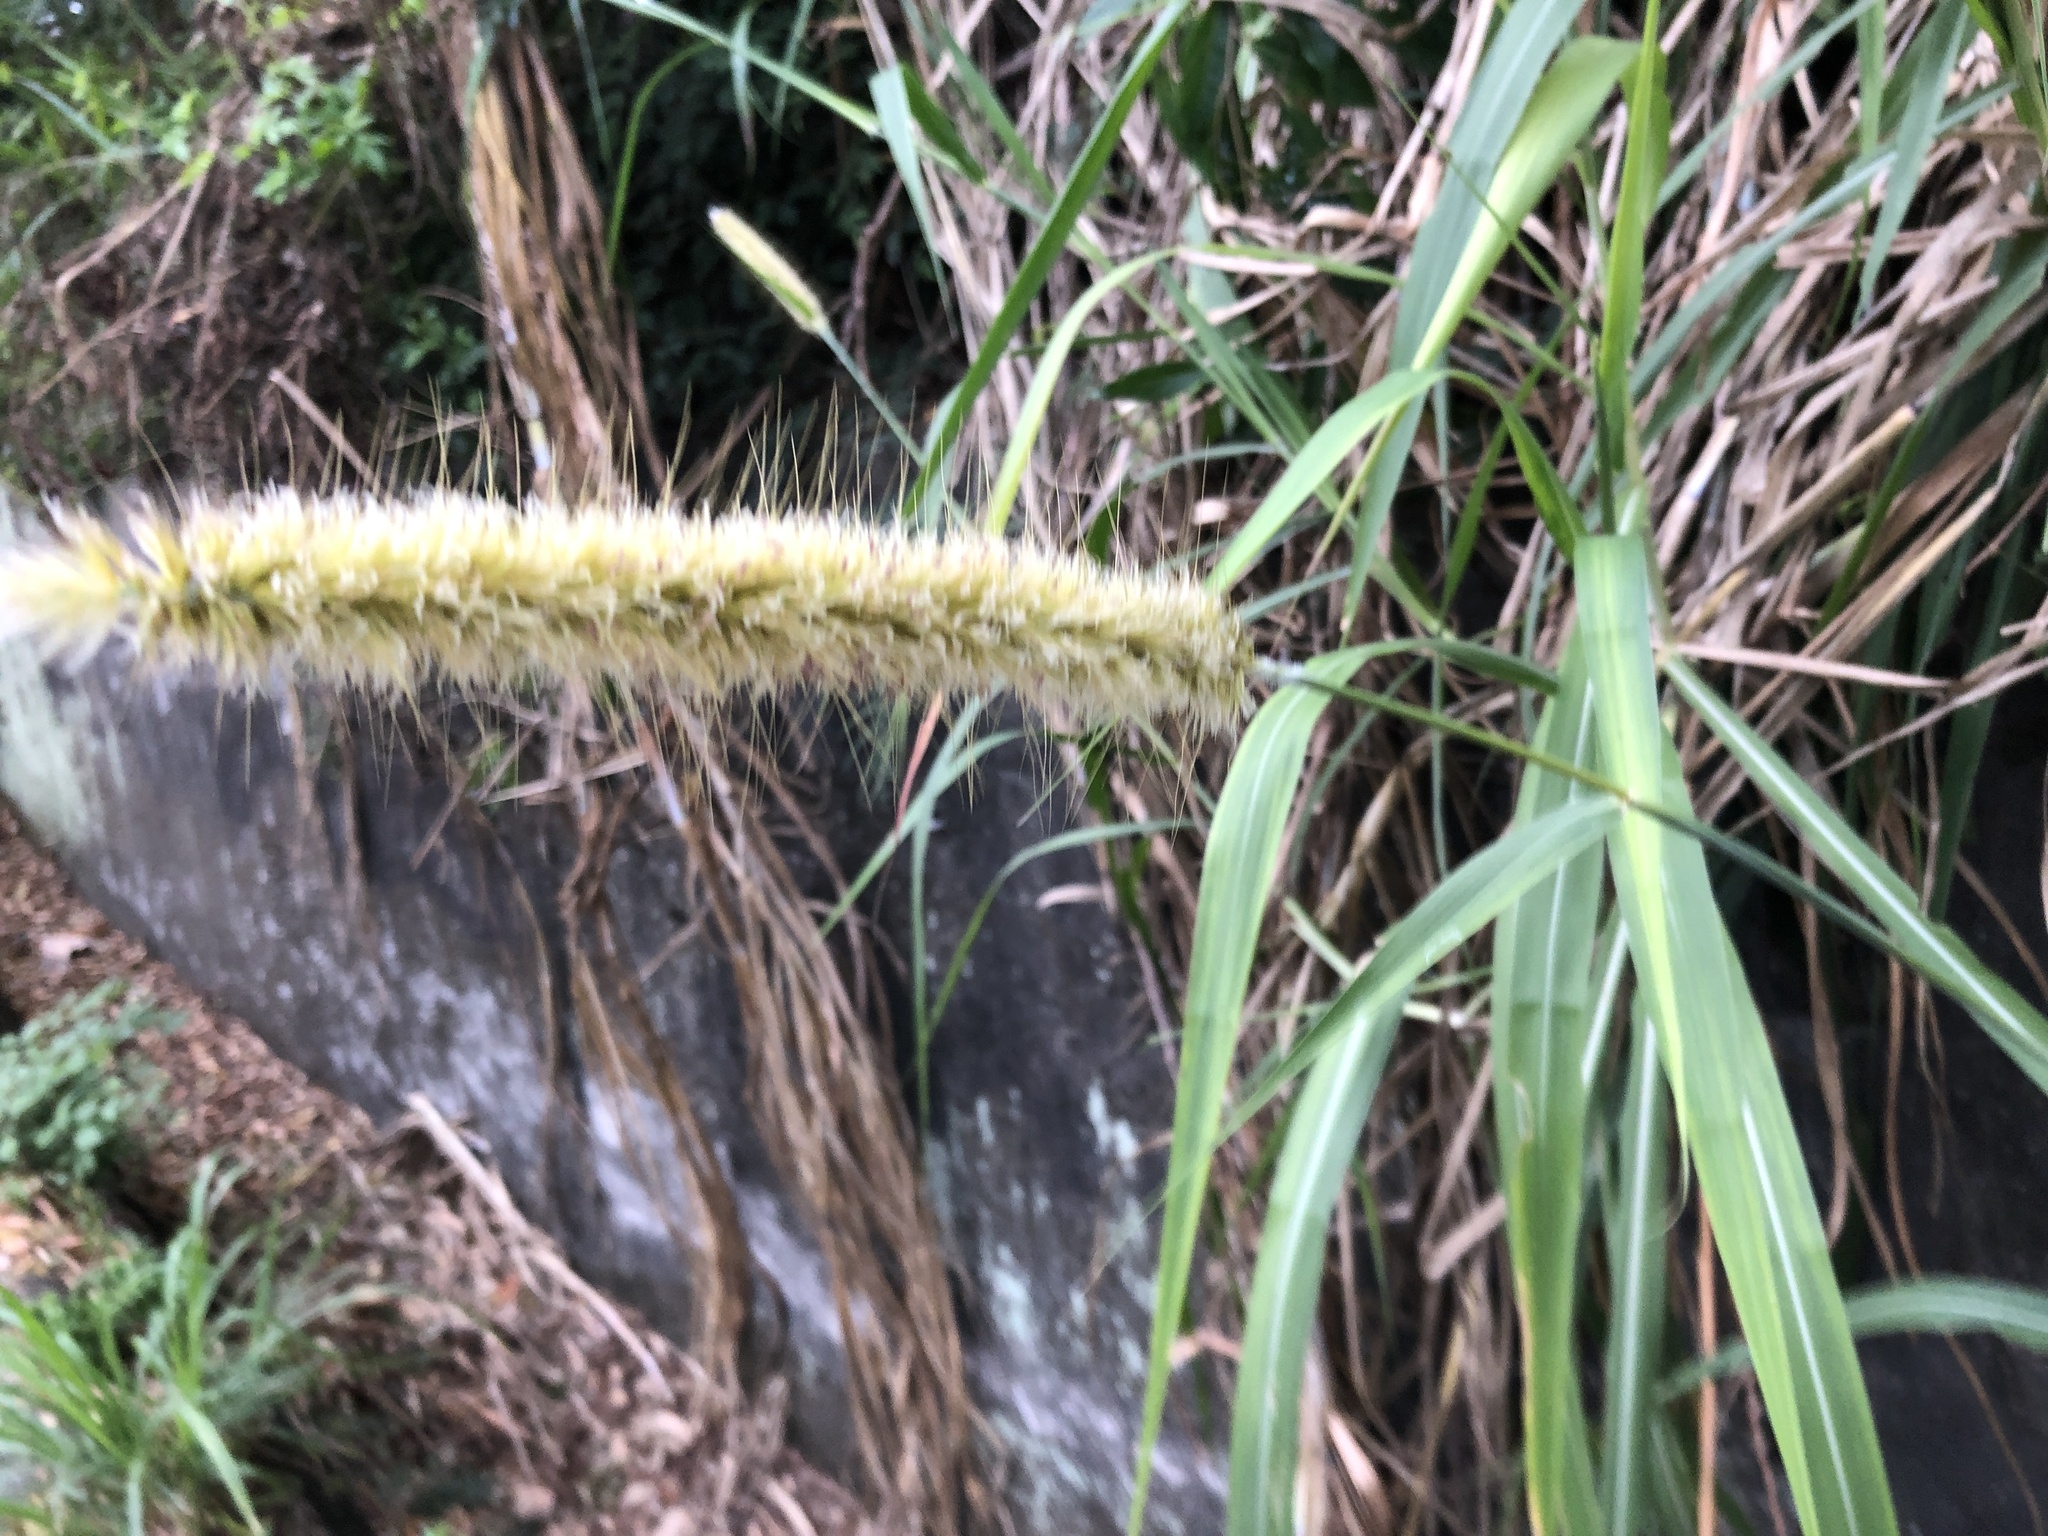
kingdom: Plantae
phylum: Tracheophyta
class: Liliopsida
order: Poales
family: Poaceae
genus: Cenchrus
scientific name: Cenchrus purpureus
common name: Elephant grass
